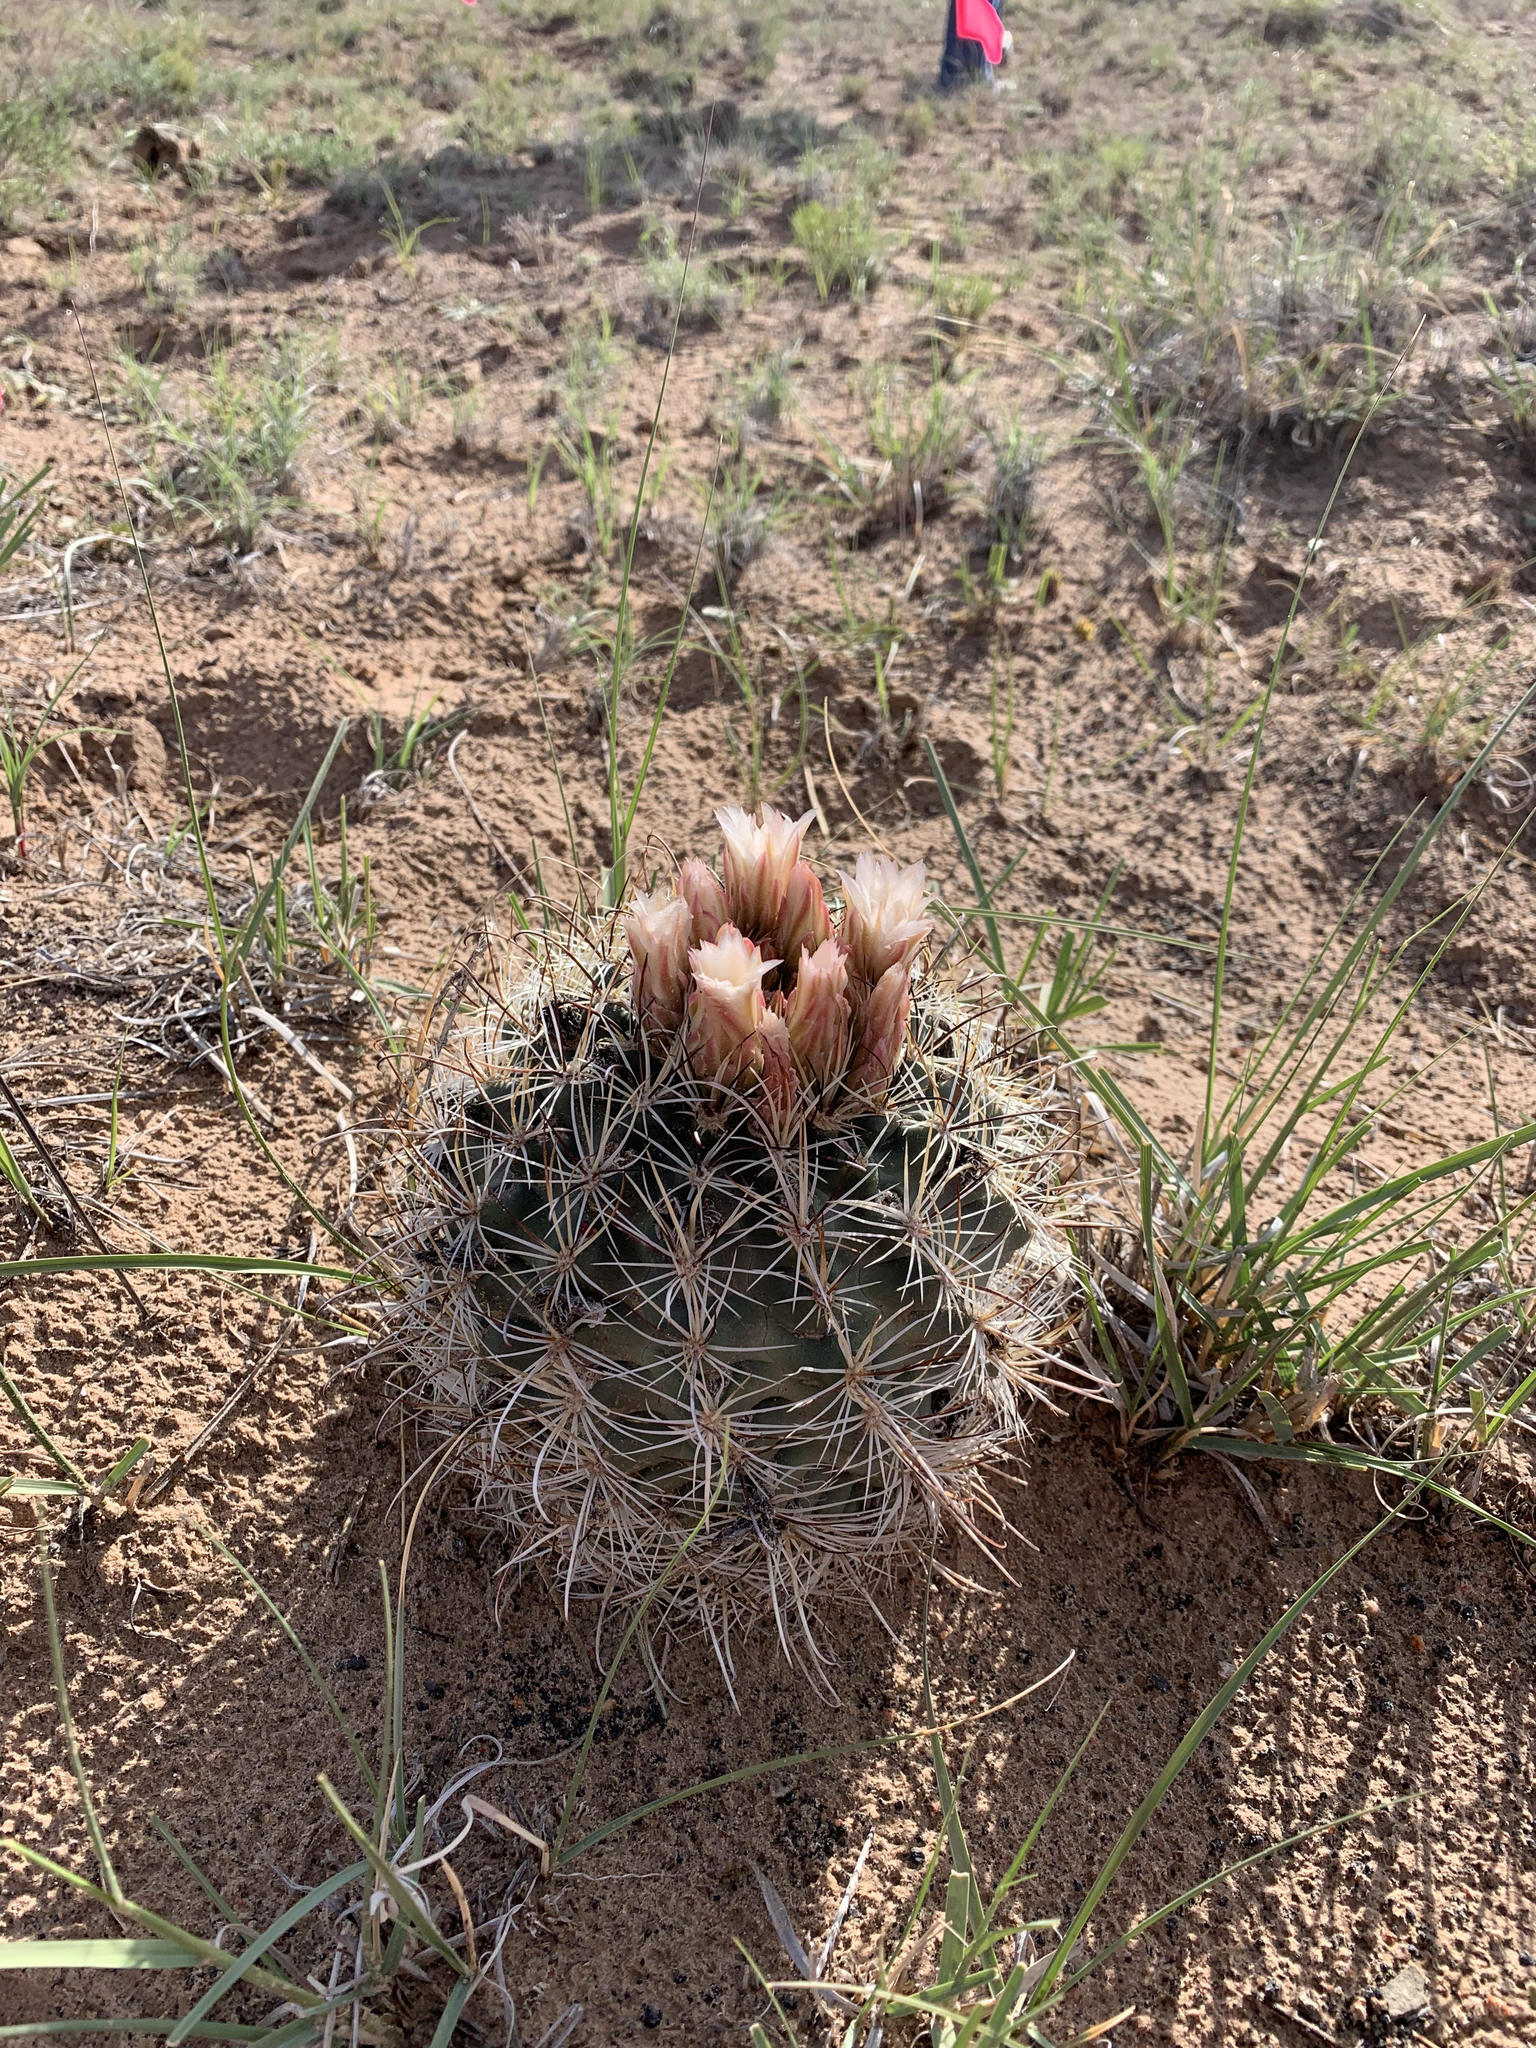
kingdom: Plantae
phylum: Tracheophyta
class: Magnoliopsida
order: Caryophyllales
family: Cactaceae
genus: Sclerocactus
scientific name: Sclerocactus wrightiae
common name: Wrights fishhook cactus
